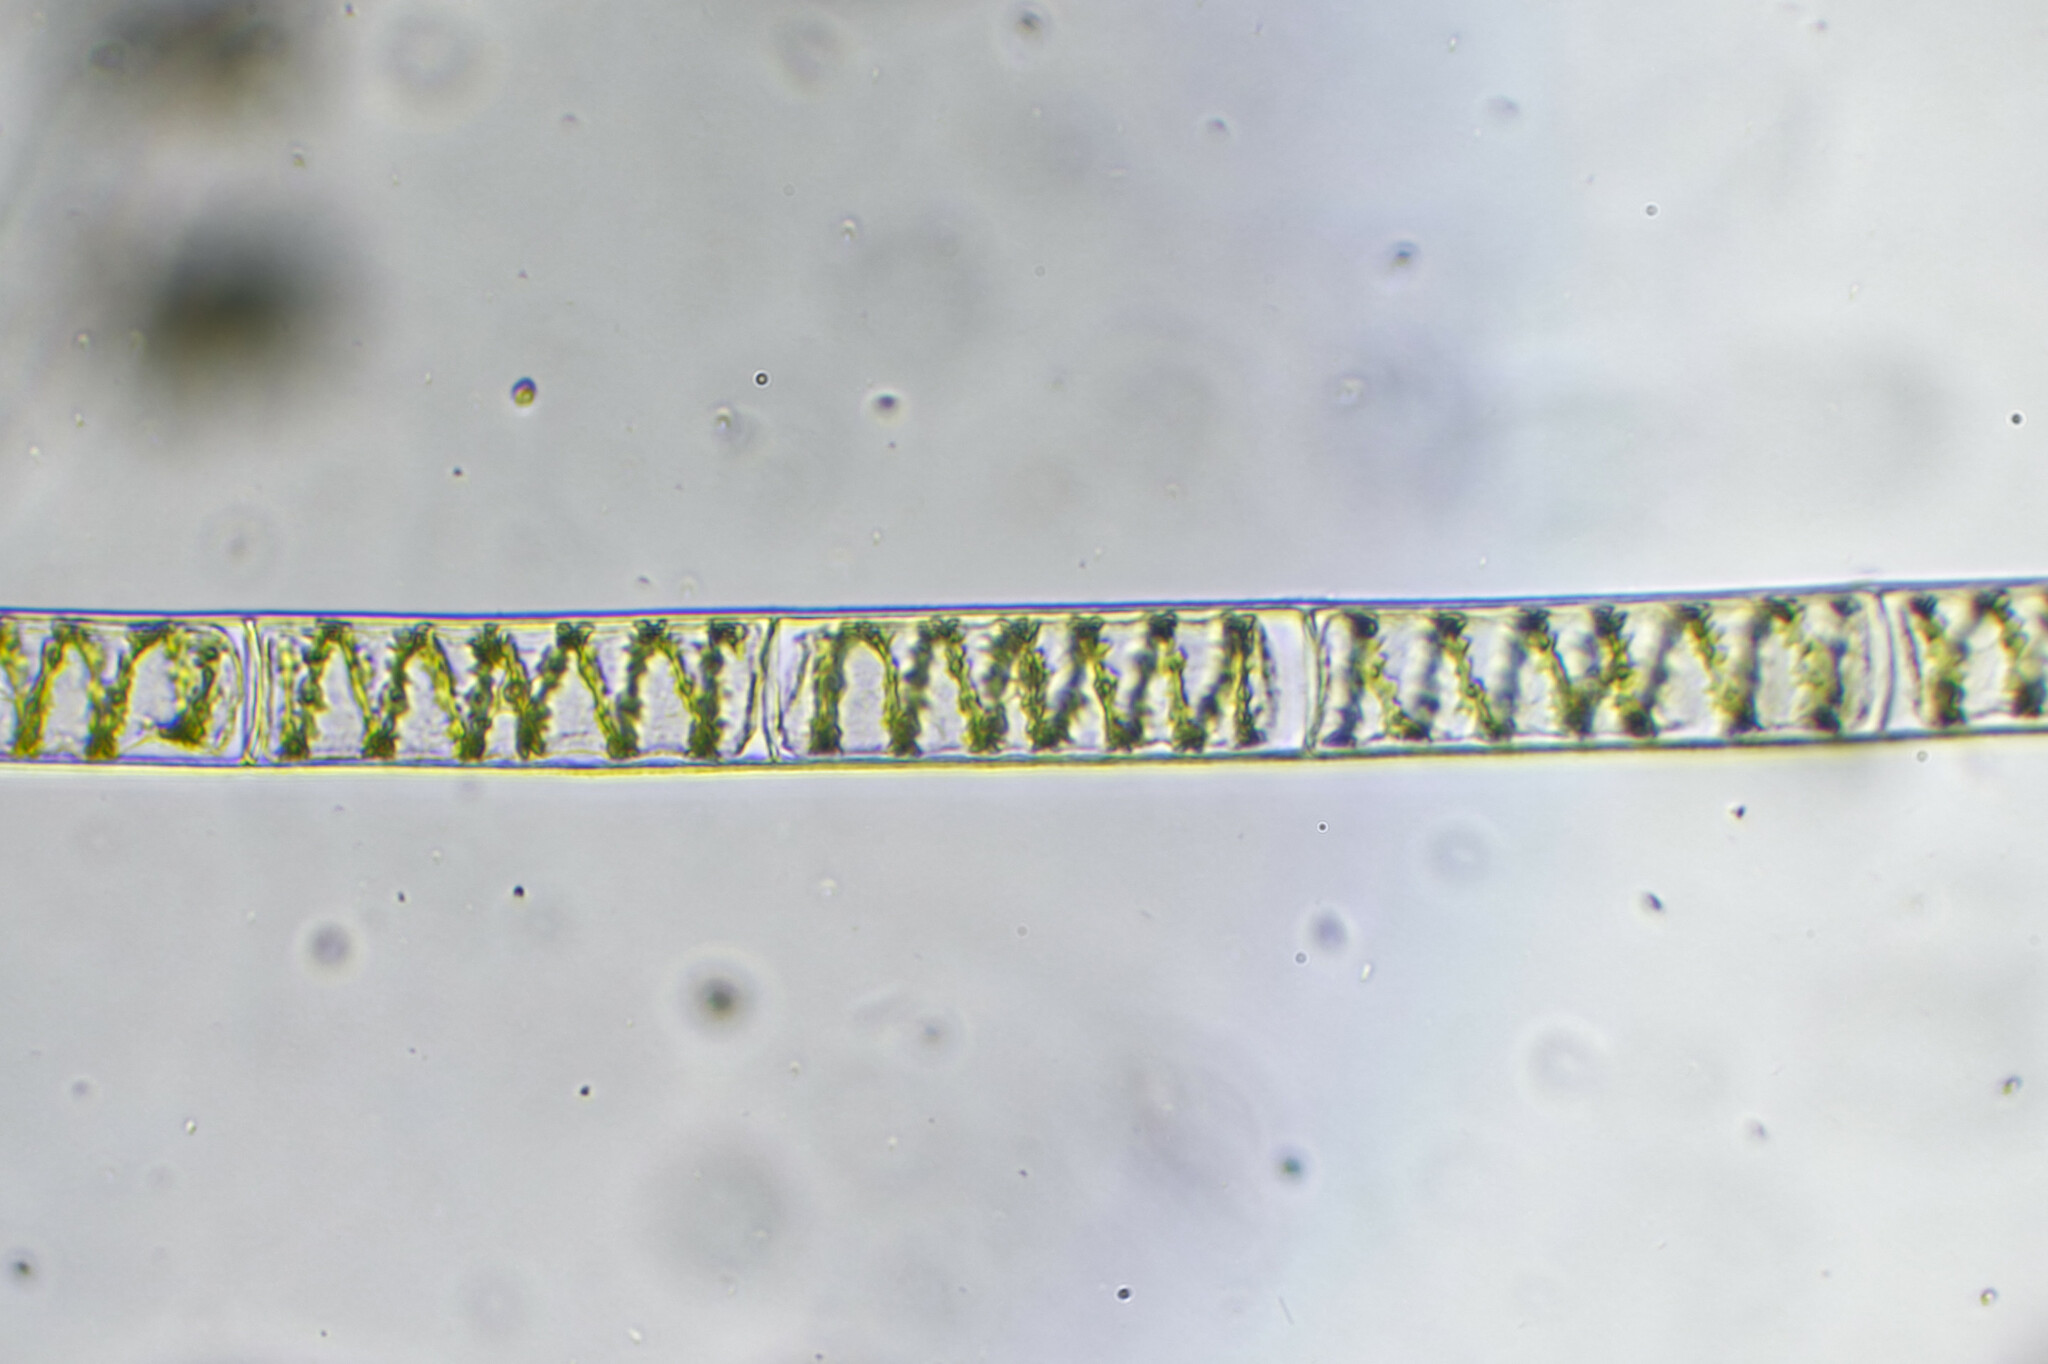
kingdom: Plantae
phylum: Charophyta
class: Zygnematophyceae
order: Zygnematales
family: Zygnemataceae
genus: Spirogyra
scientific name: Spirogyra
